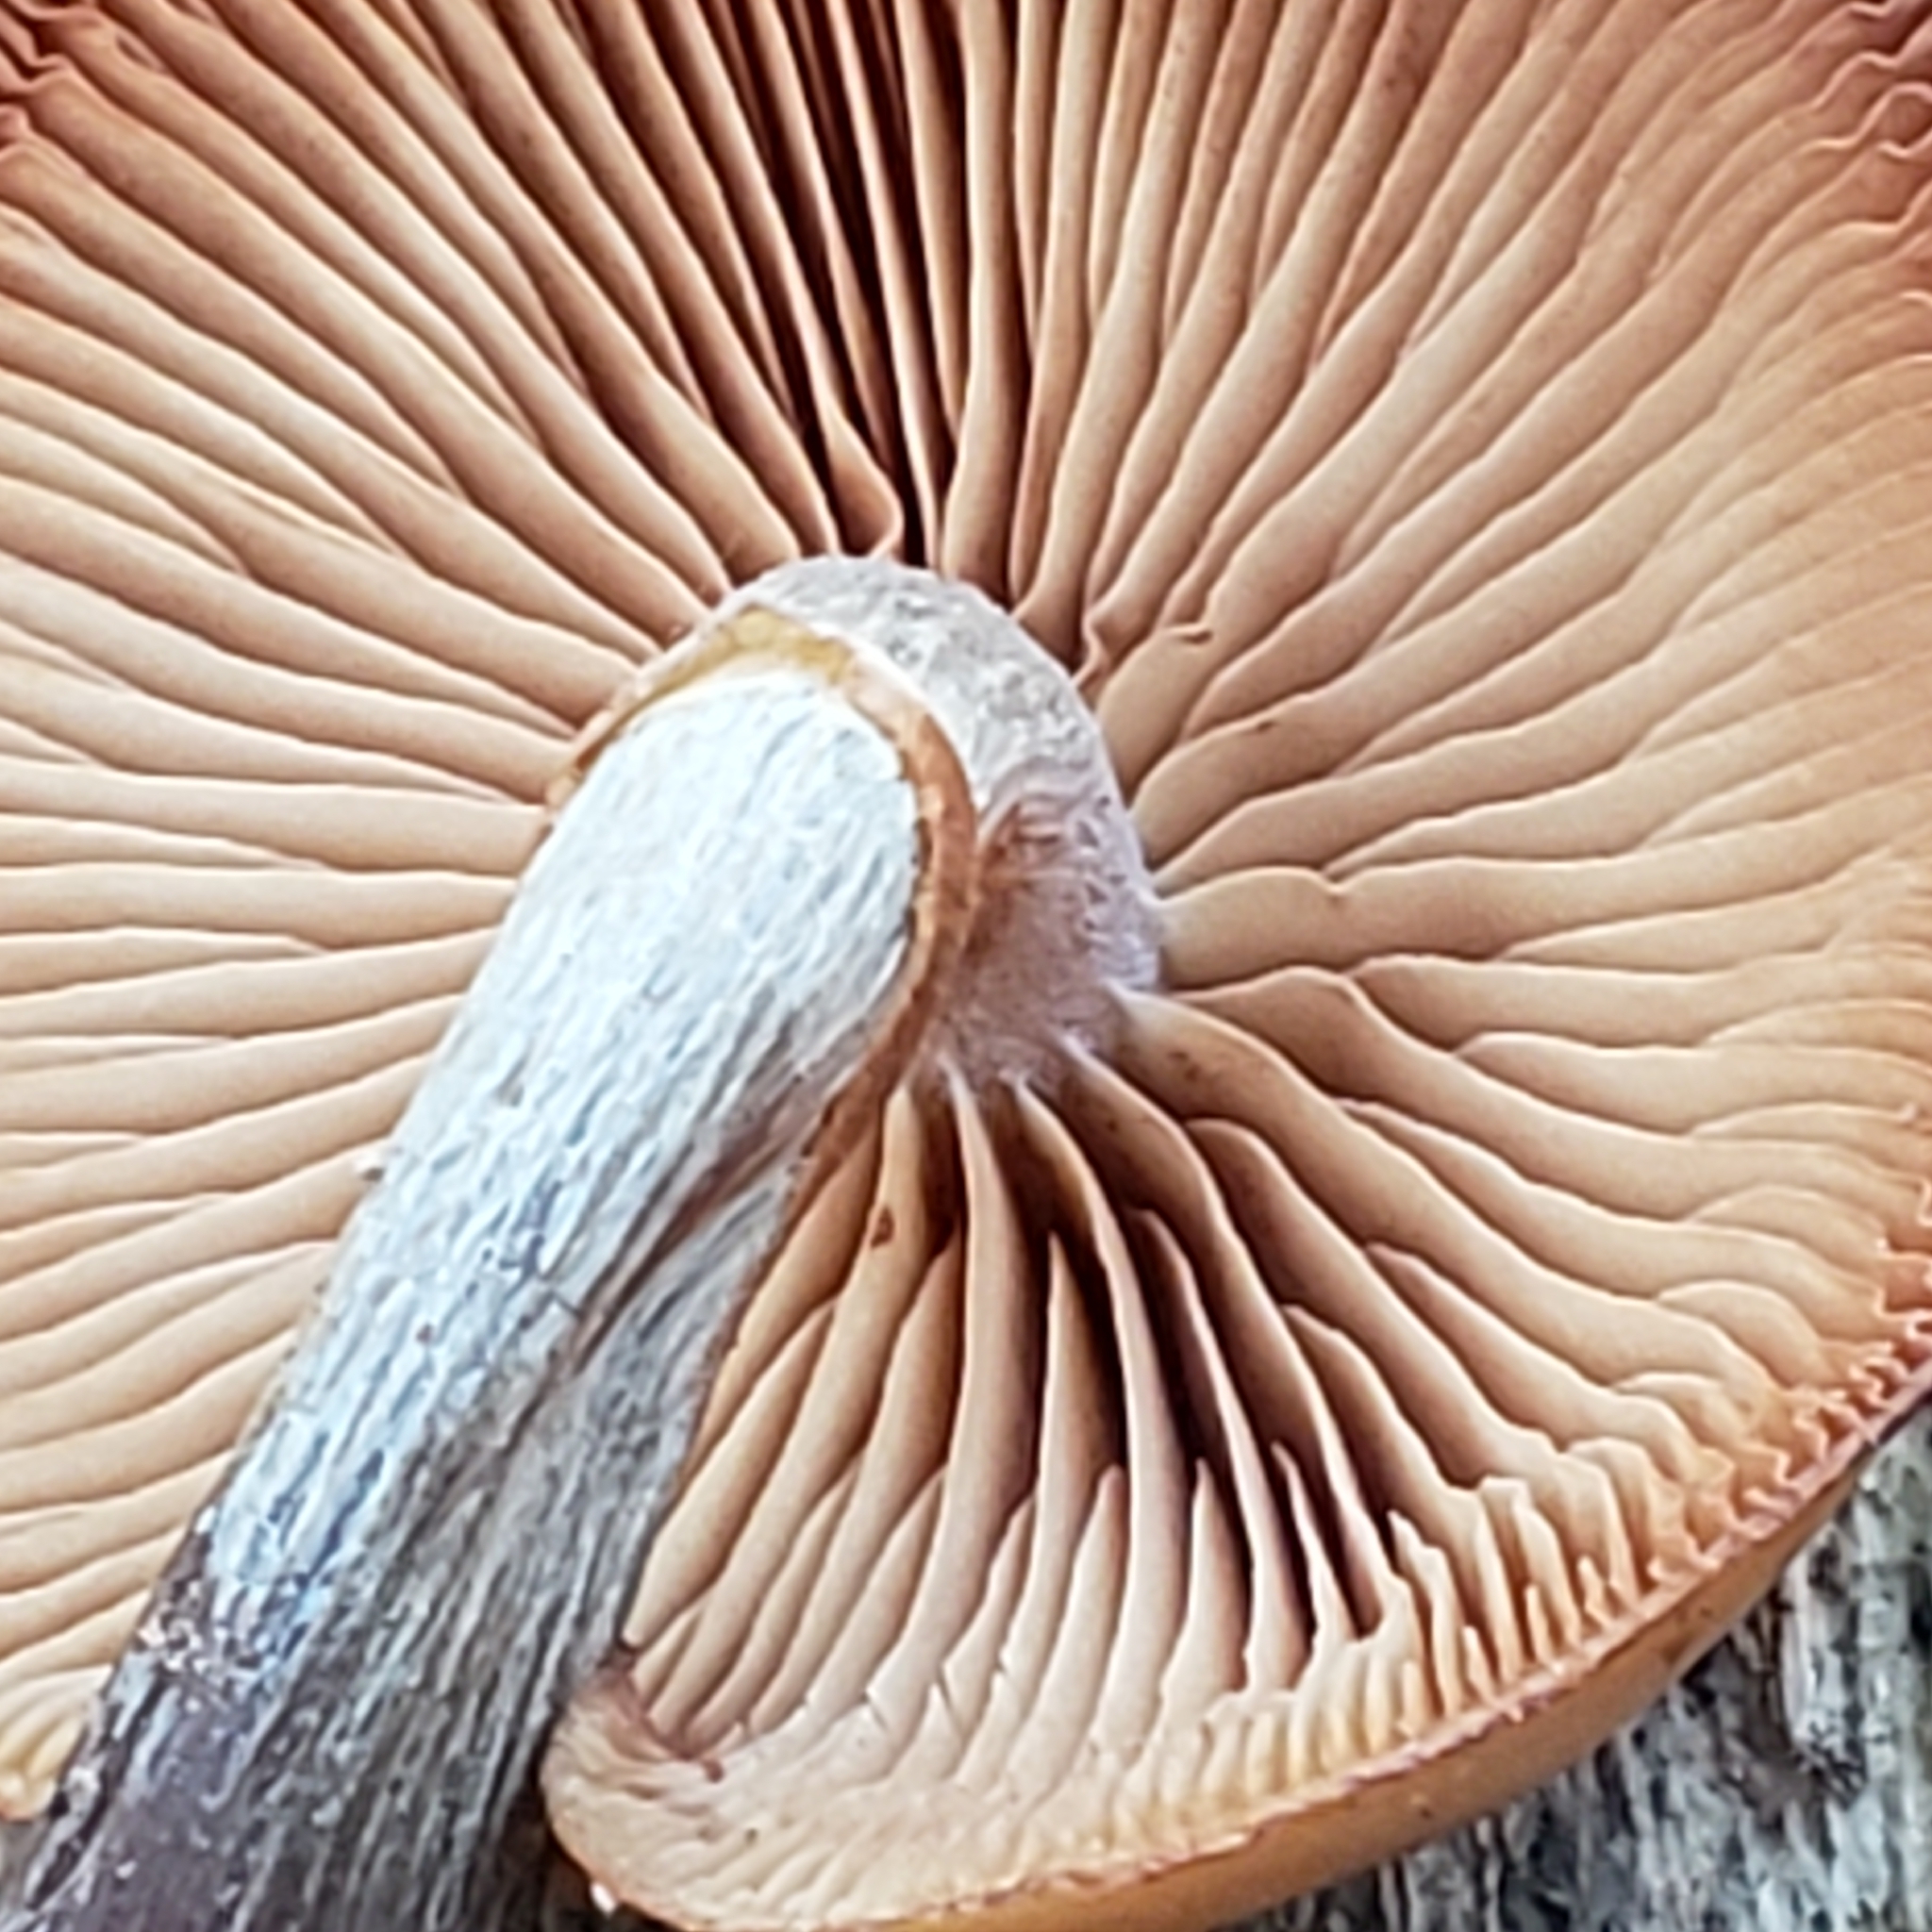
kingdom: Fungi
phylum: Basidiomycota
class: Agaricomycetes
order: Agaricales
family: Hymenogastraceae
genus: Galerina
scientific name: Galerina marginata
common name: Funeral bell
